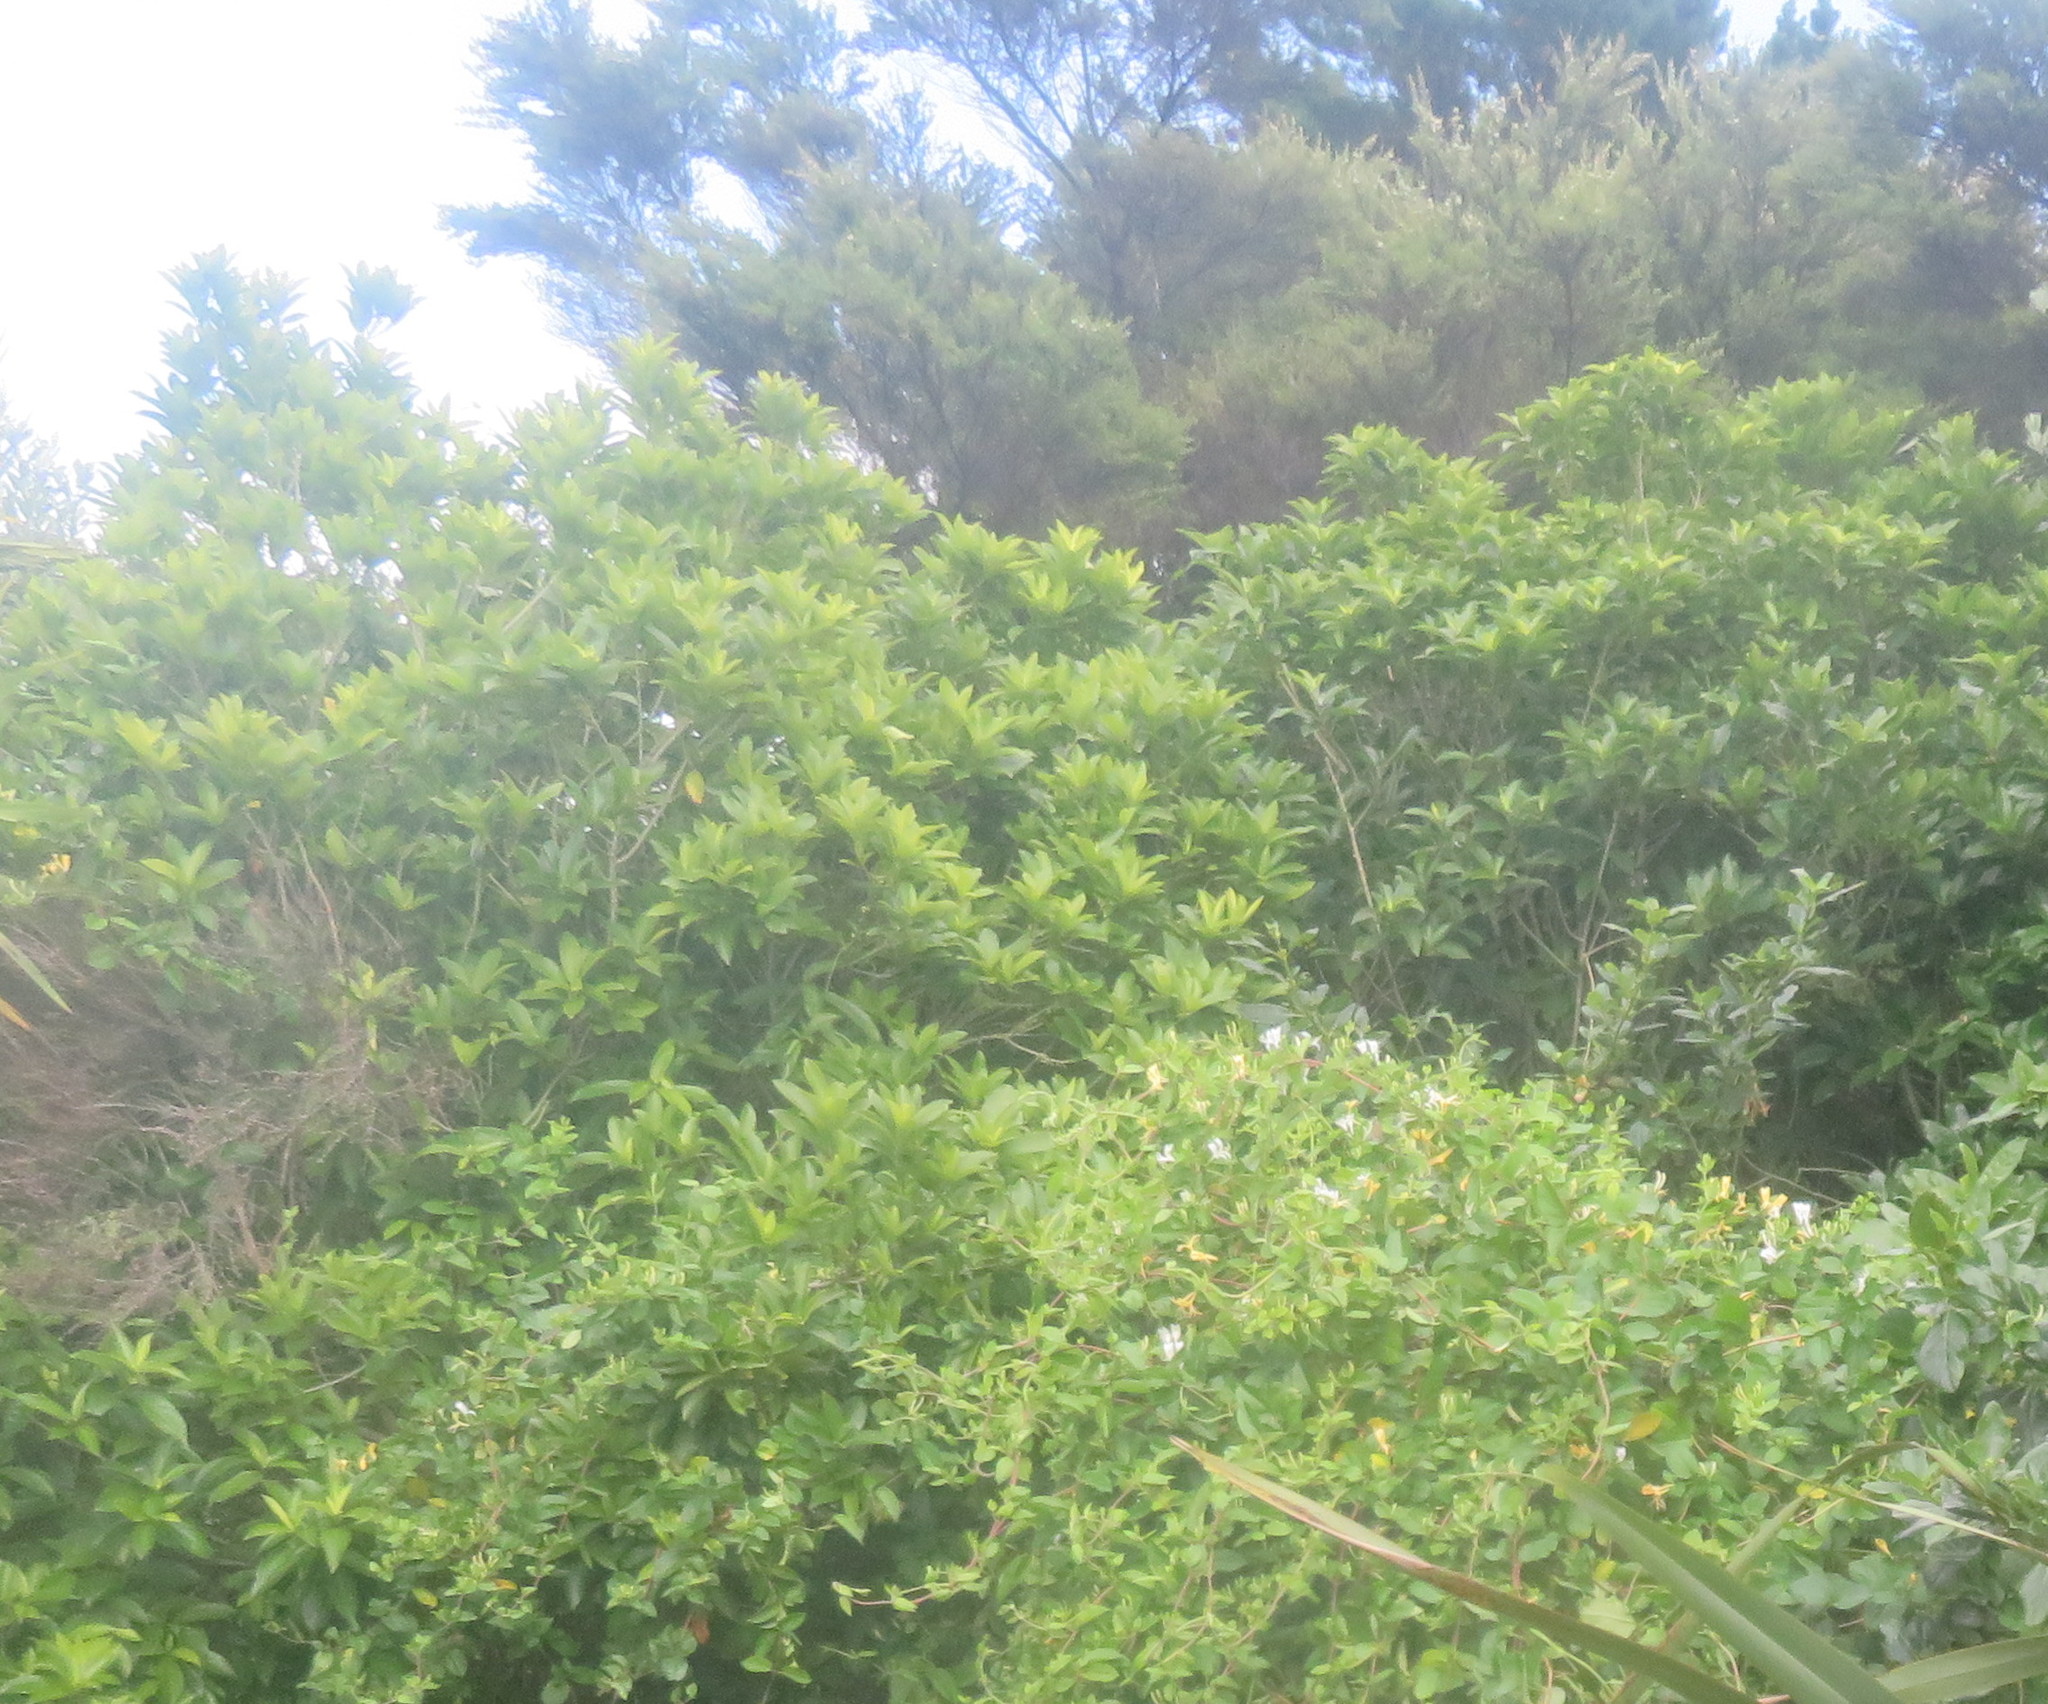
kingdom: Plantae
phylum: Tracheophyta
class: Magnoliopsida
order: Malpighiales
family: Violaceae
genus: Melicytus
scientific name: Melicytus ramiflorus
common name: Mahoe
